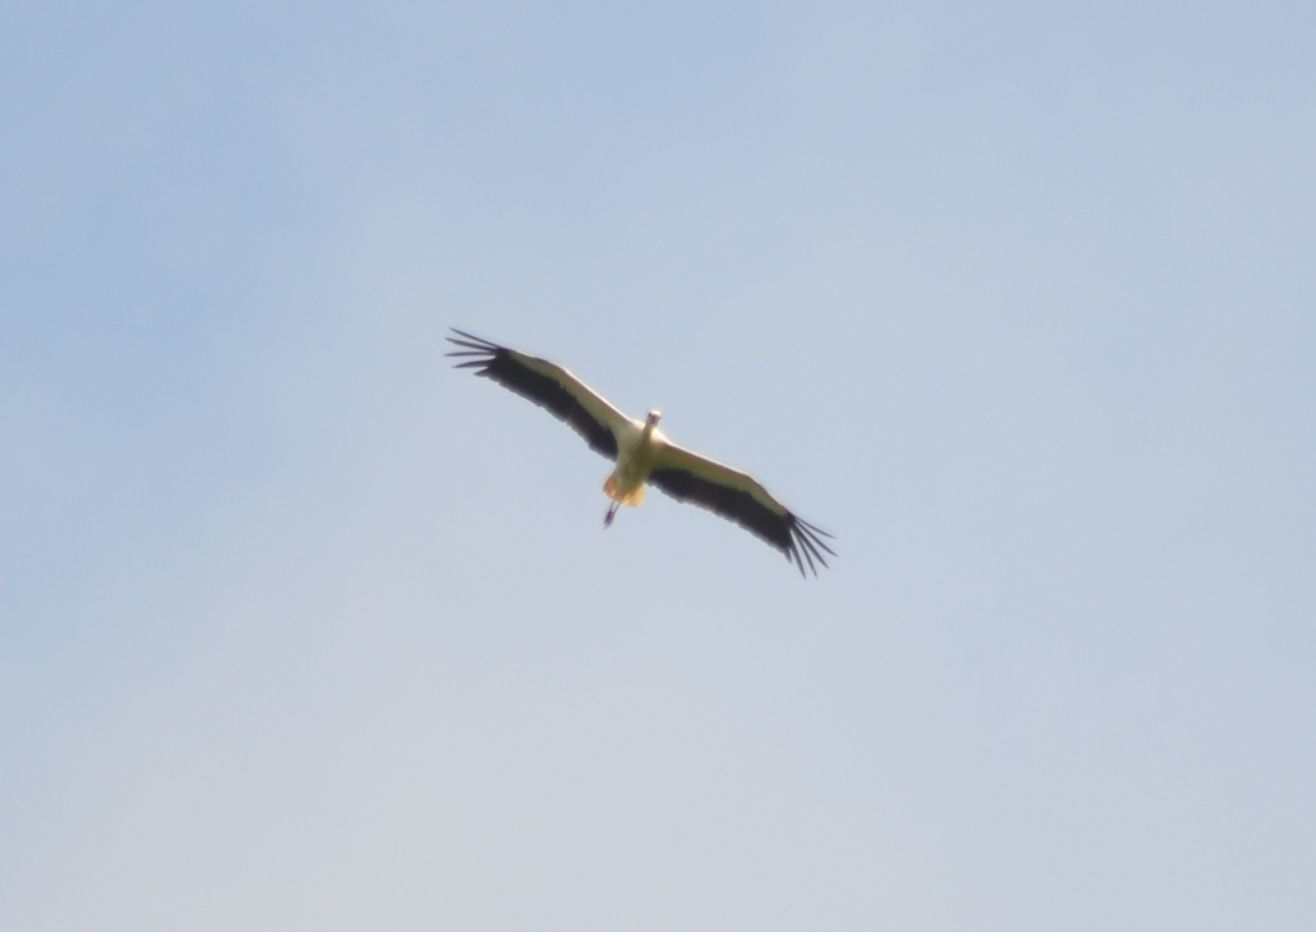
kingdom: Animalia
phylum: Chordata
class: Aves
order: Ciconiiformes
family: Ciconiidae
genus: Ciconia
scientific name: Ciconia ciconia
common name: White stork
